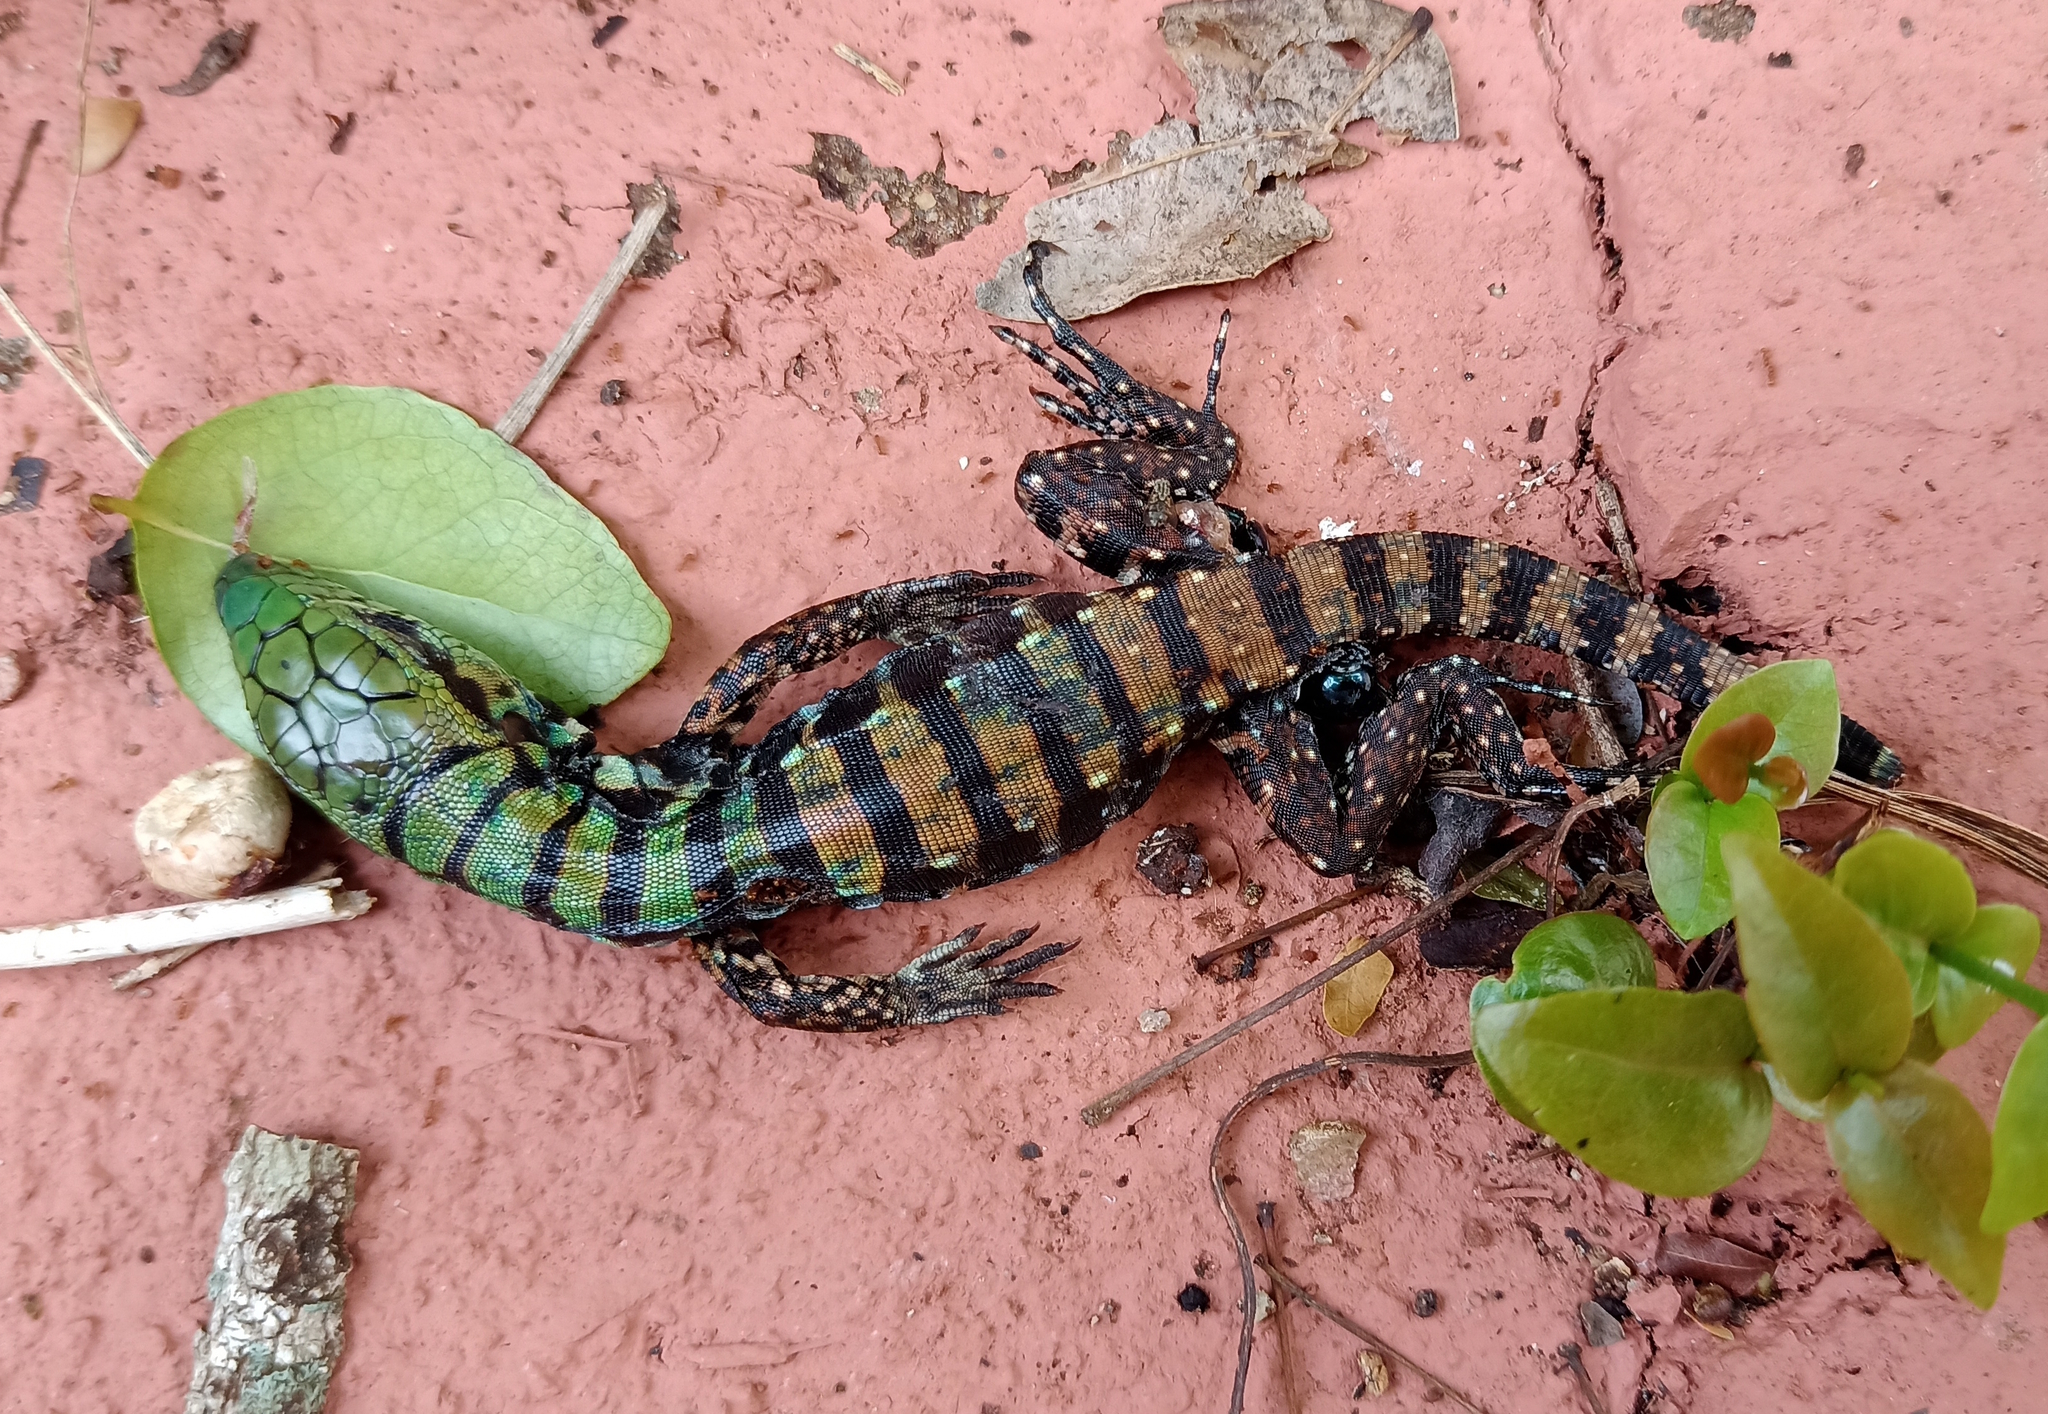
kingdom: Animalia
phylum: Chordata
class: Squamata
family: Teiidae
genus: Salvator
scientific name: Salvator merianae
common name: Argentine black and white tegu
